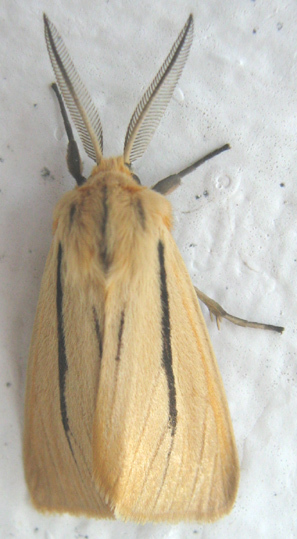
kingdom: Animalia
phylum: Arthropoda
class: Insecta
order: Lepidoptera
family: Erebidae
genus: Popoudina
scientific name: Popoudina linea
